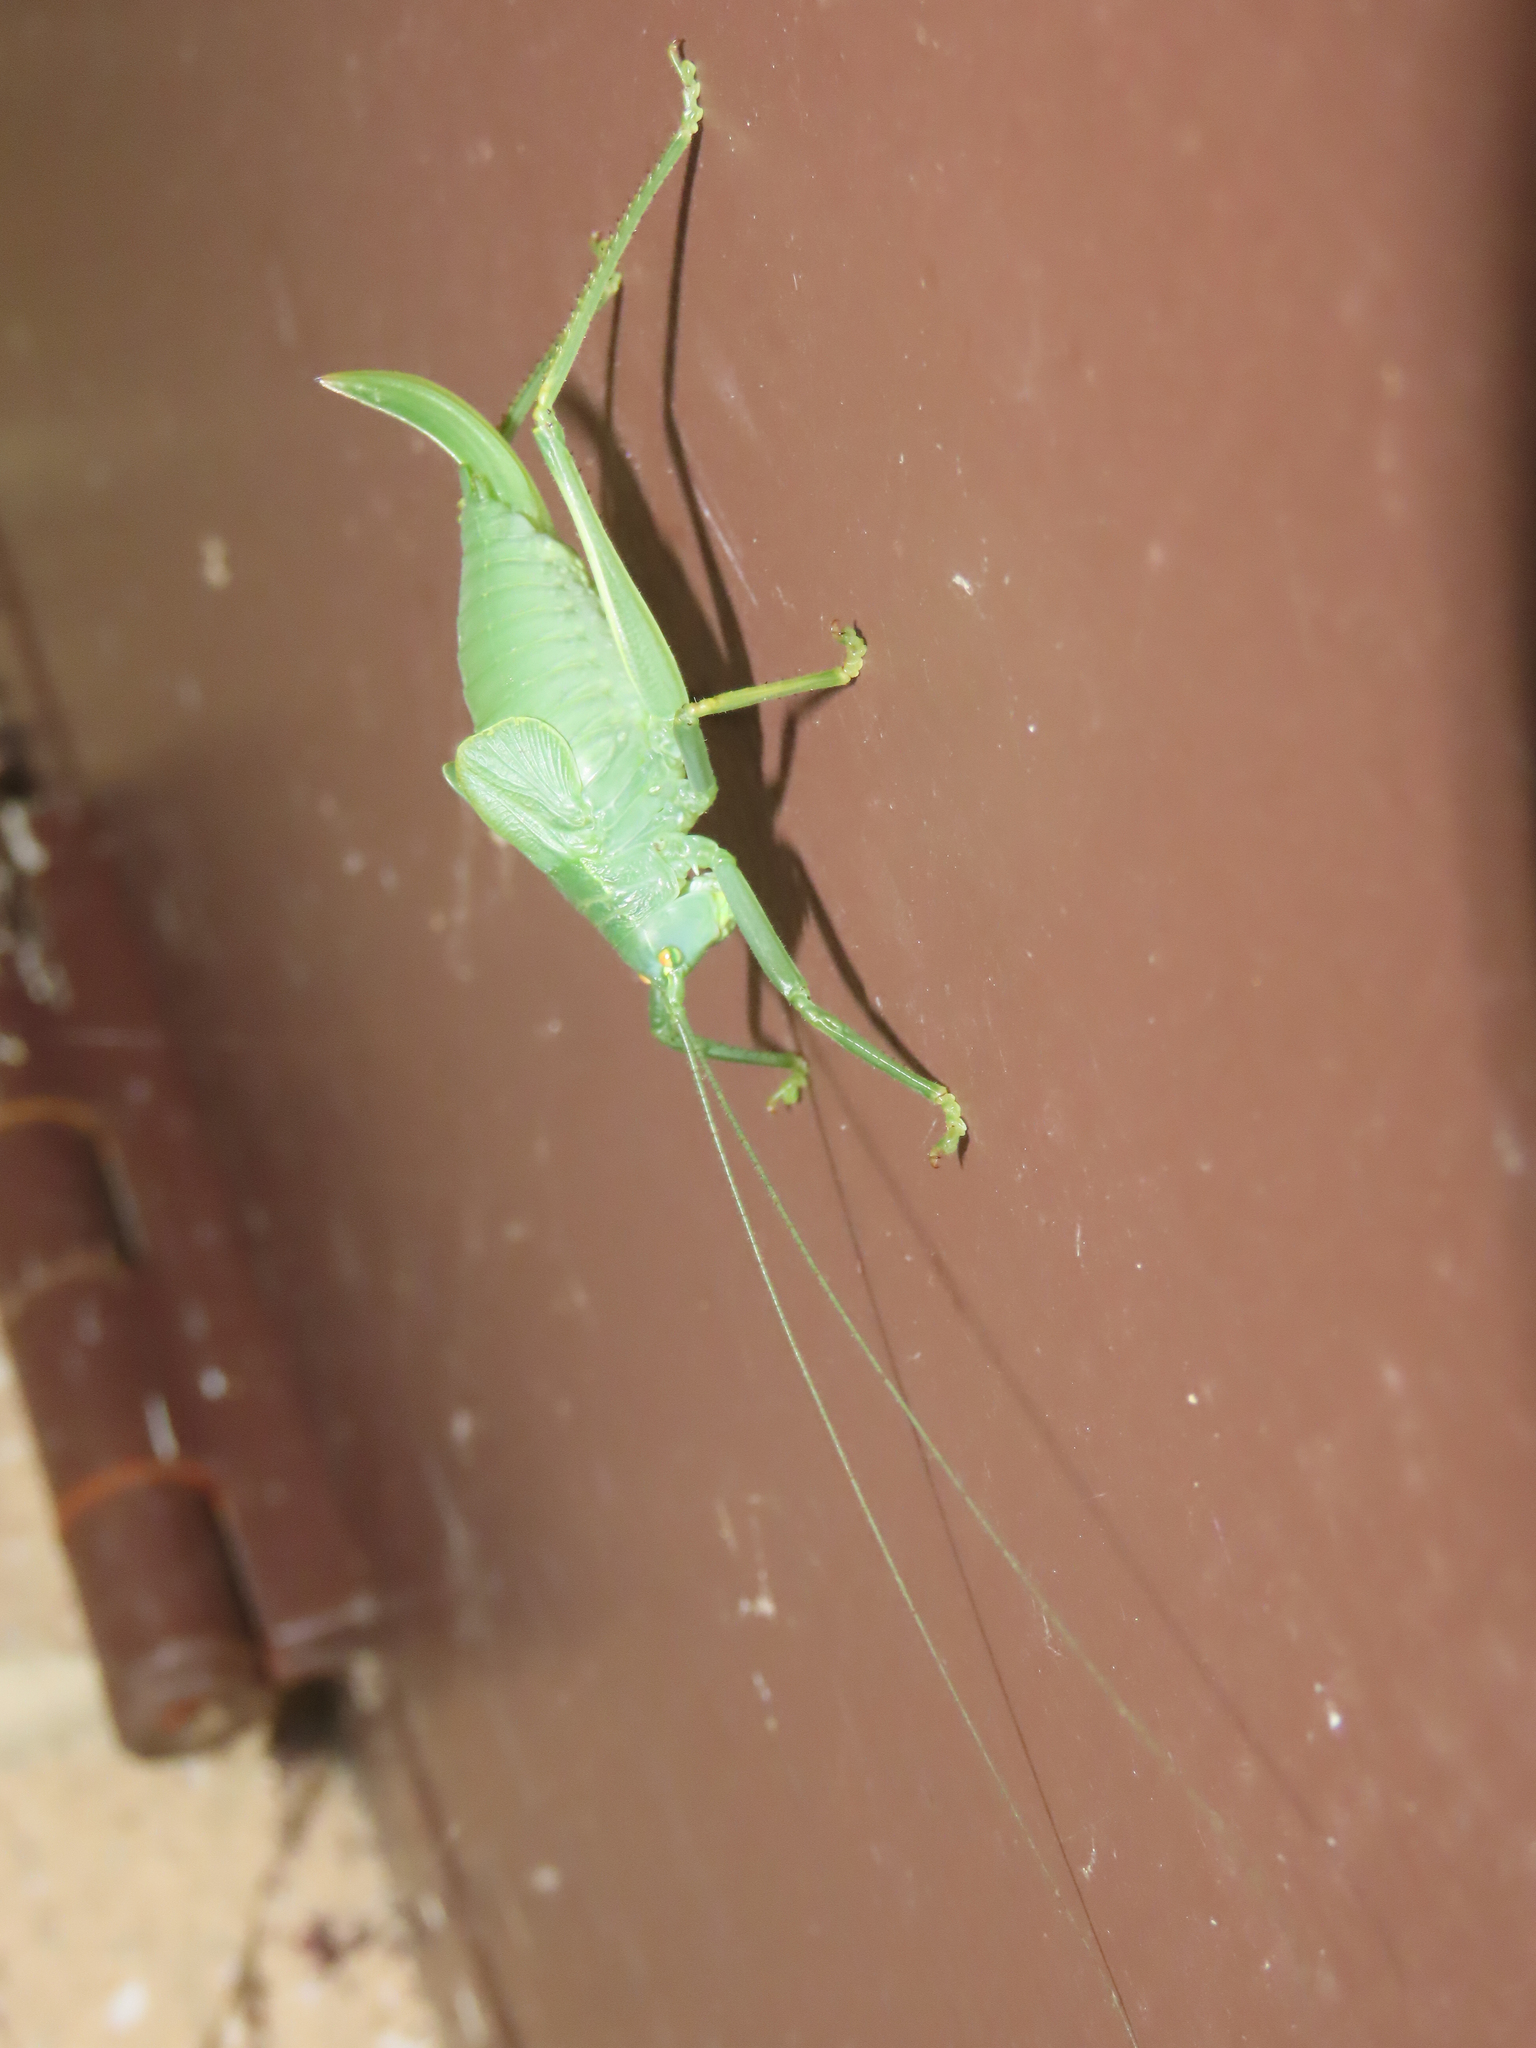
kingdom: Animalia
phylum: Arthropoda
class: Insecta
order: Orthoptera
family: Tettigoniidae
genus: Pterophylla
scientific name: Pterophylla camellifolia
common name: Common true katydid
